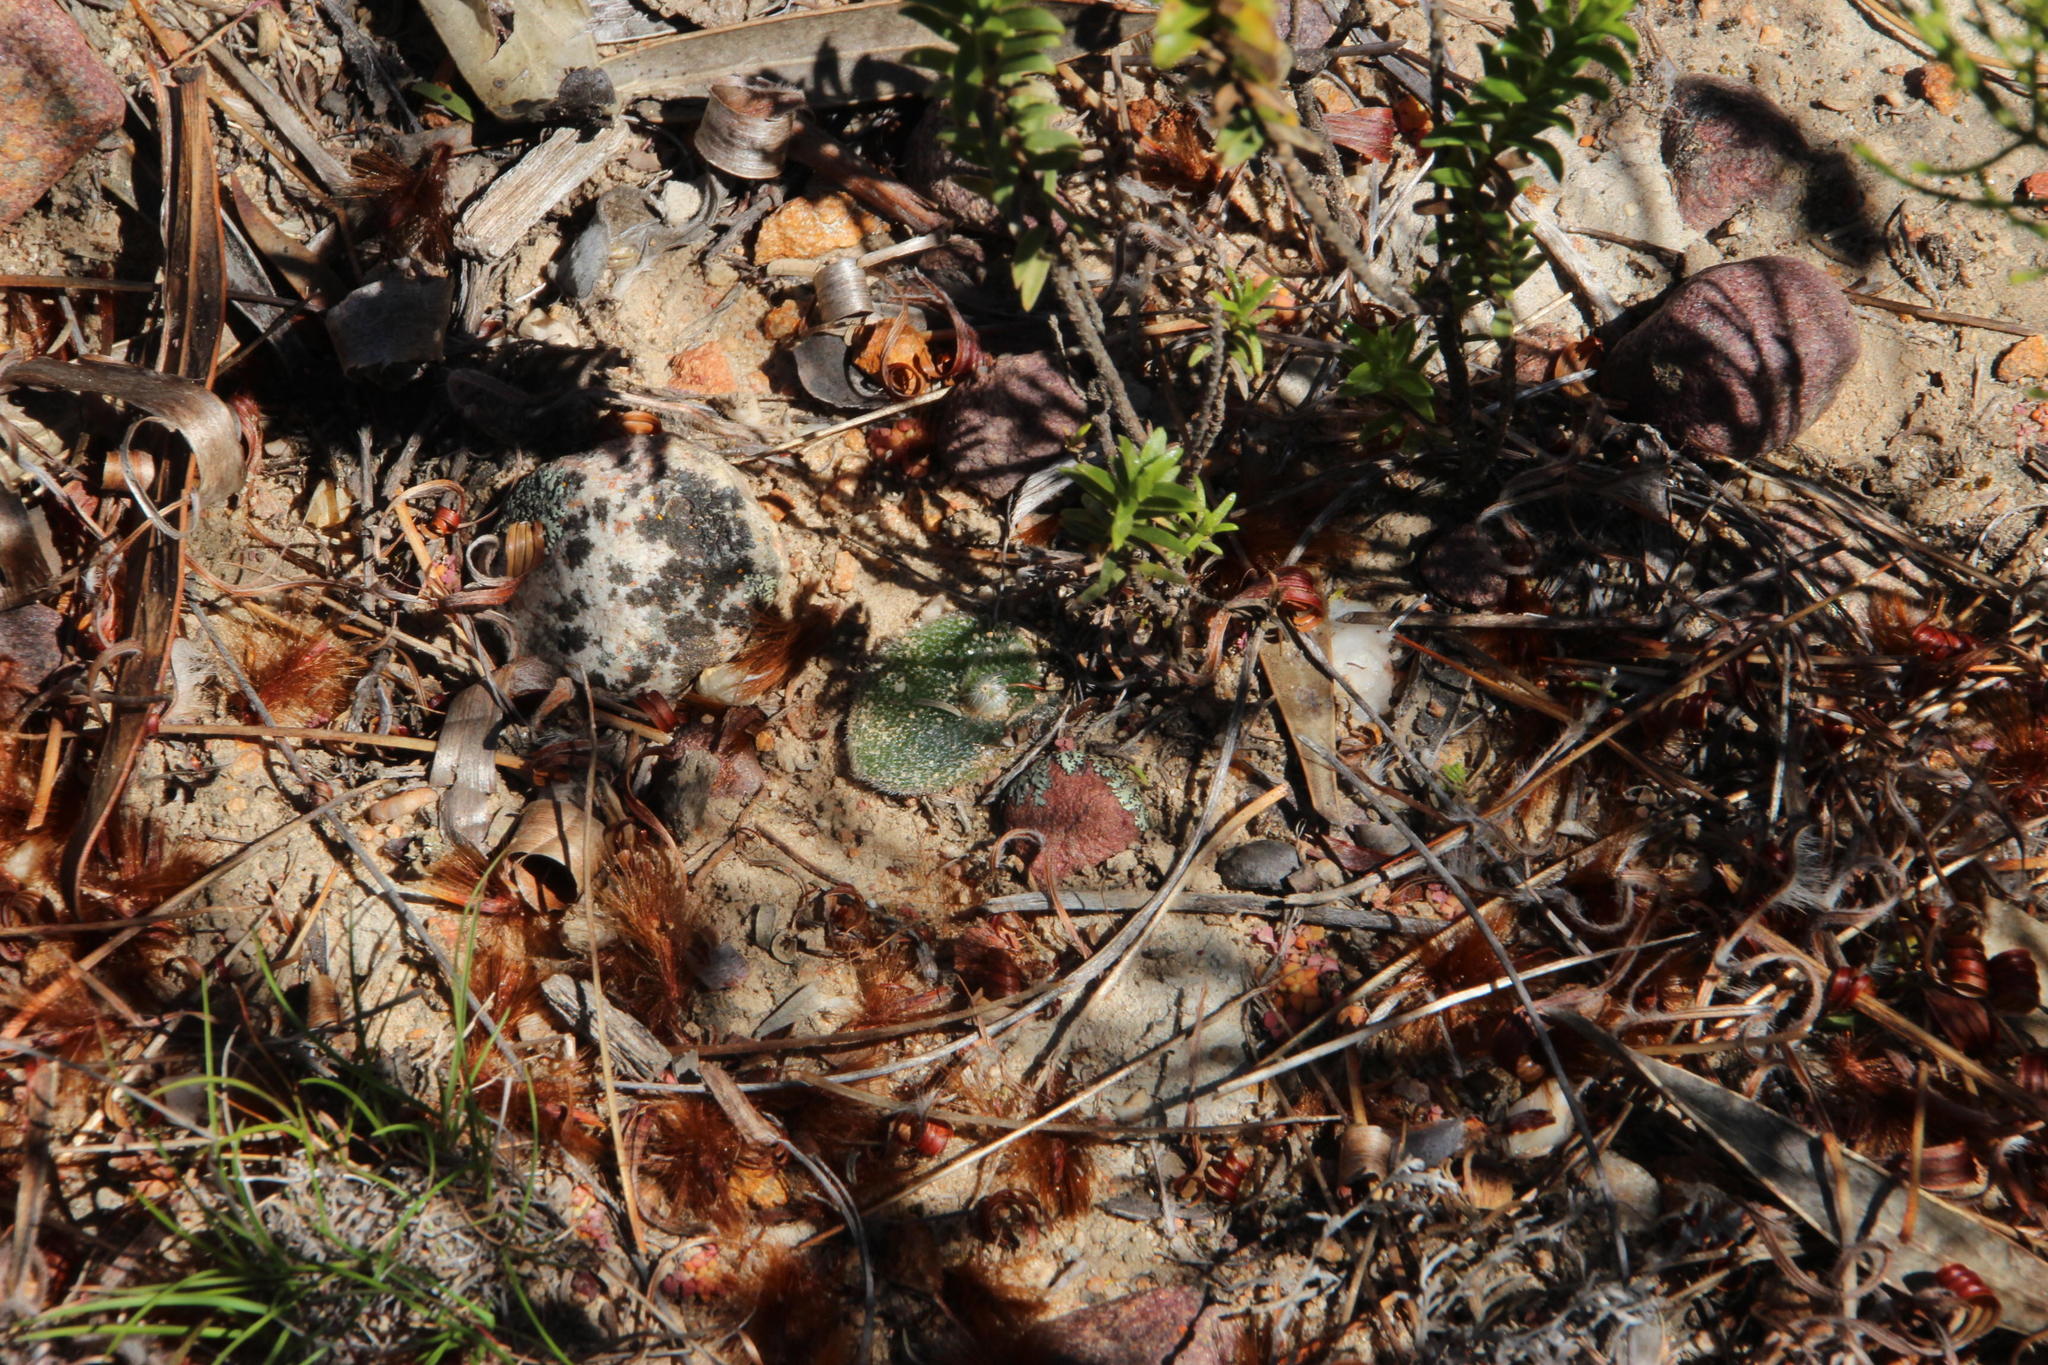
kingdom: Plantae
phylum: Tracheophyta
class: Liliopsida
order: Asparagales
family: Orchidaceae
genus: Holothrix
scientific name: Holothrix cernua
